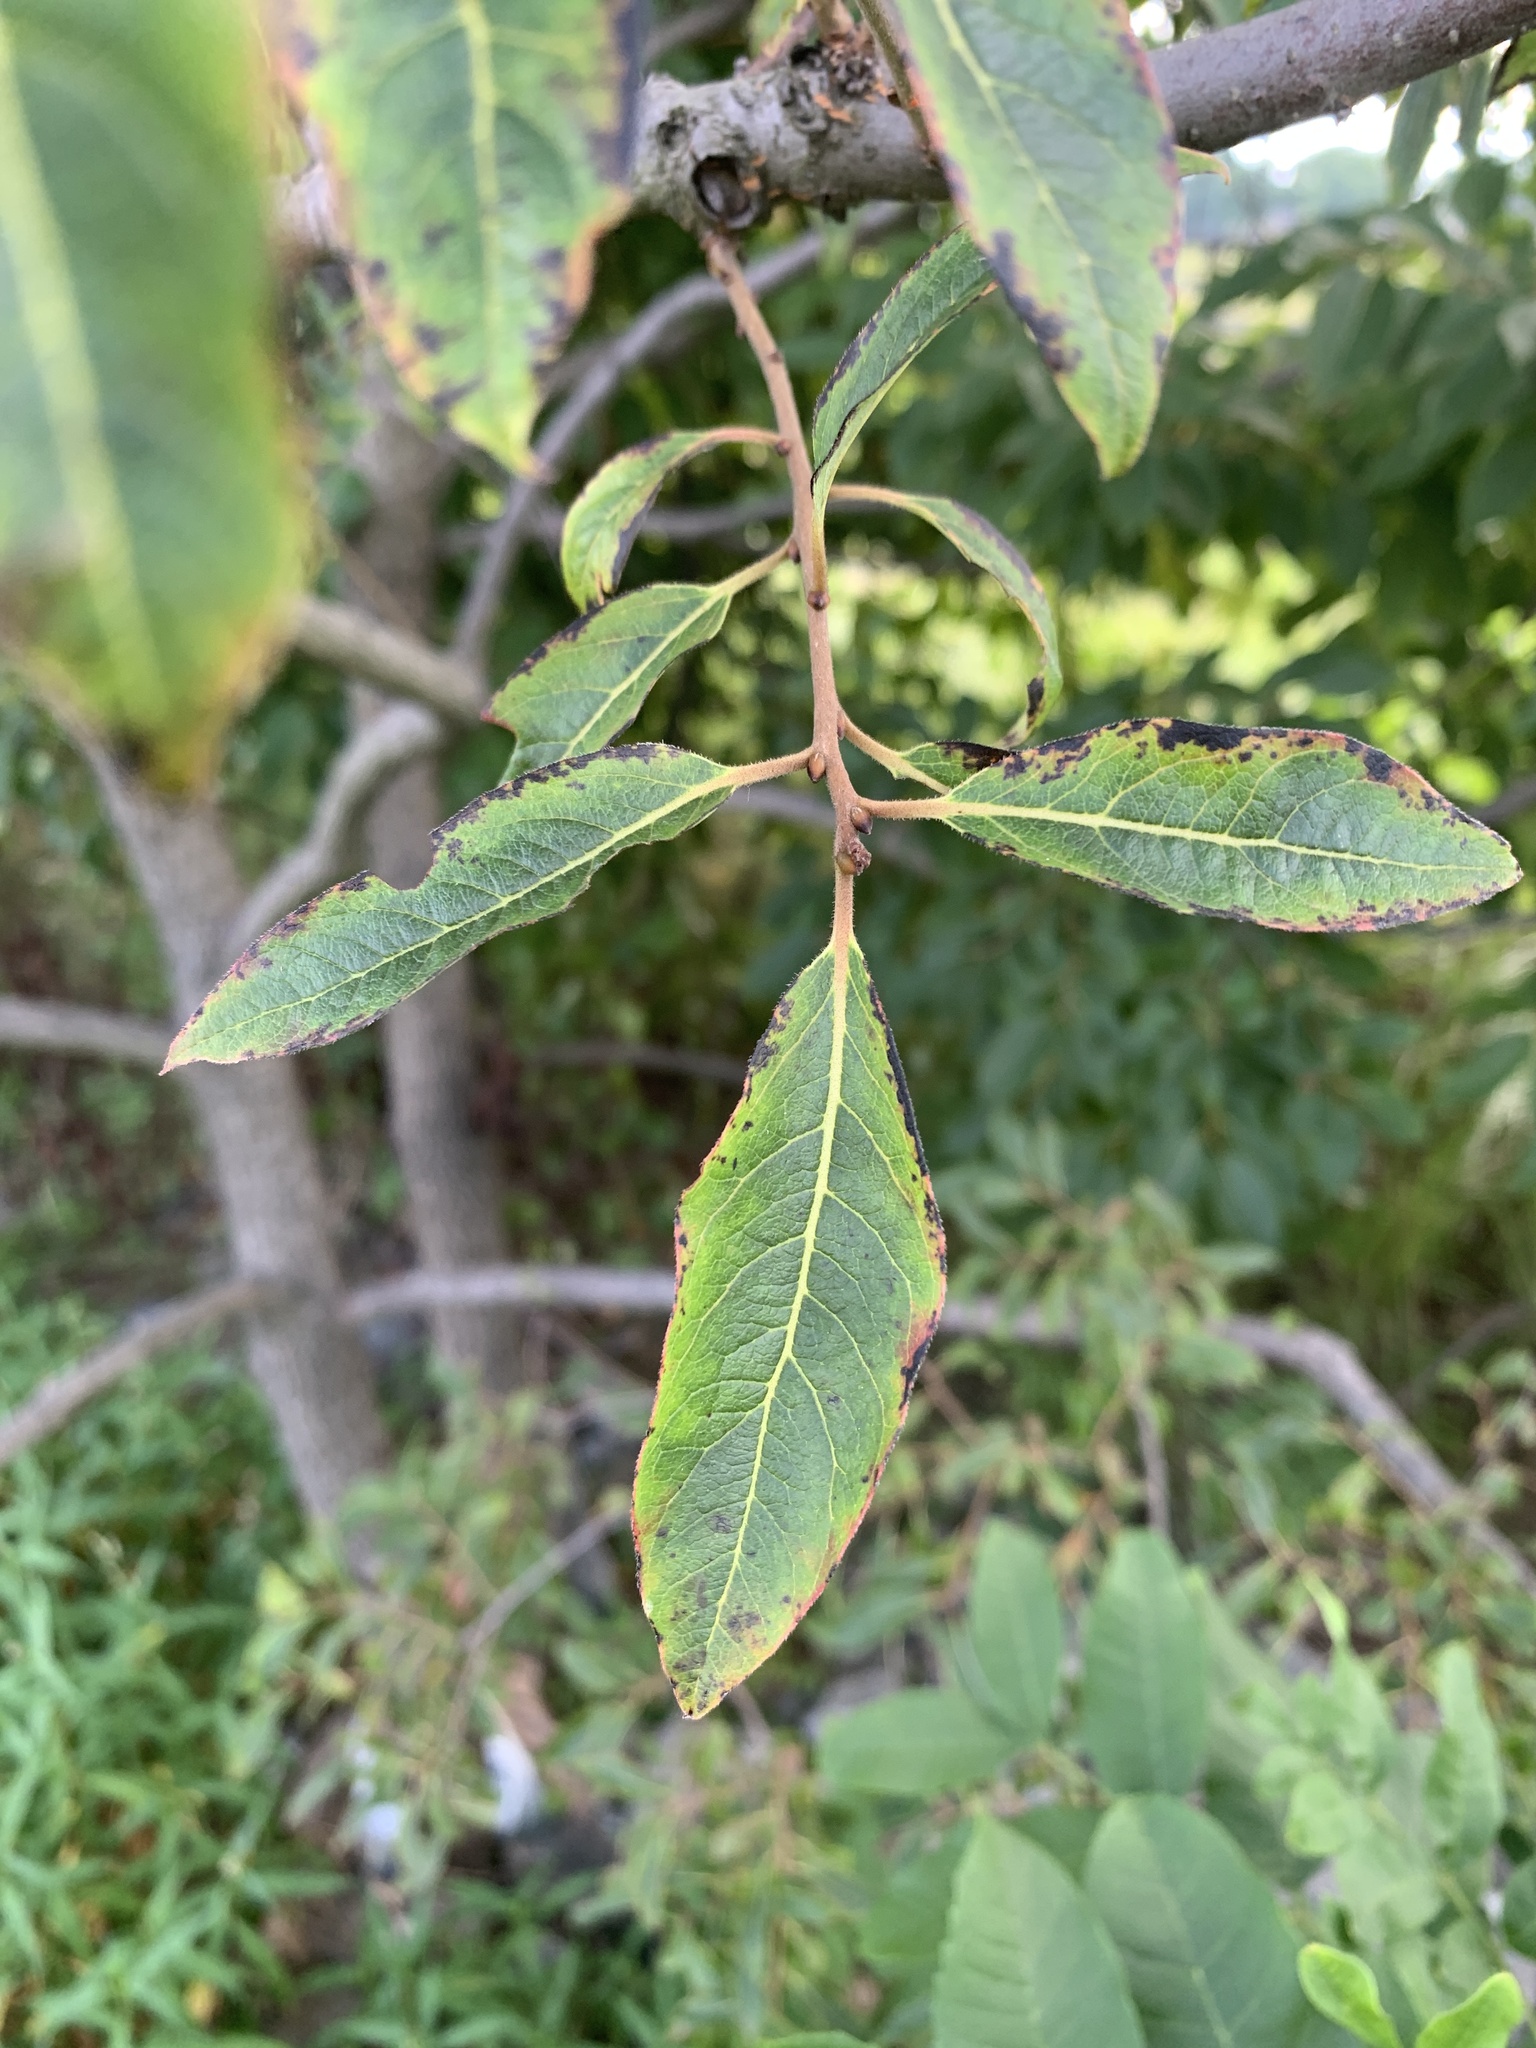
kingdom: Plantae
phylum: Tracheophyta
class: Magnoliopsida
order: Ericales
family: Ebenaceae
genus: Diospyros
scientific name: Diospyros virginiana
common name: Persimmon
